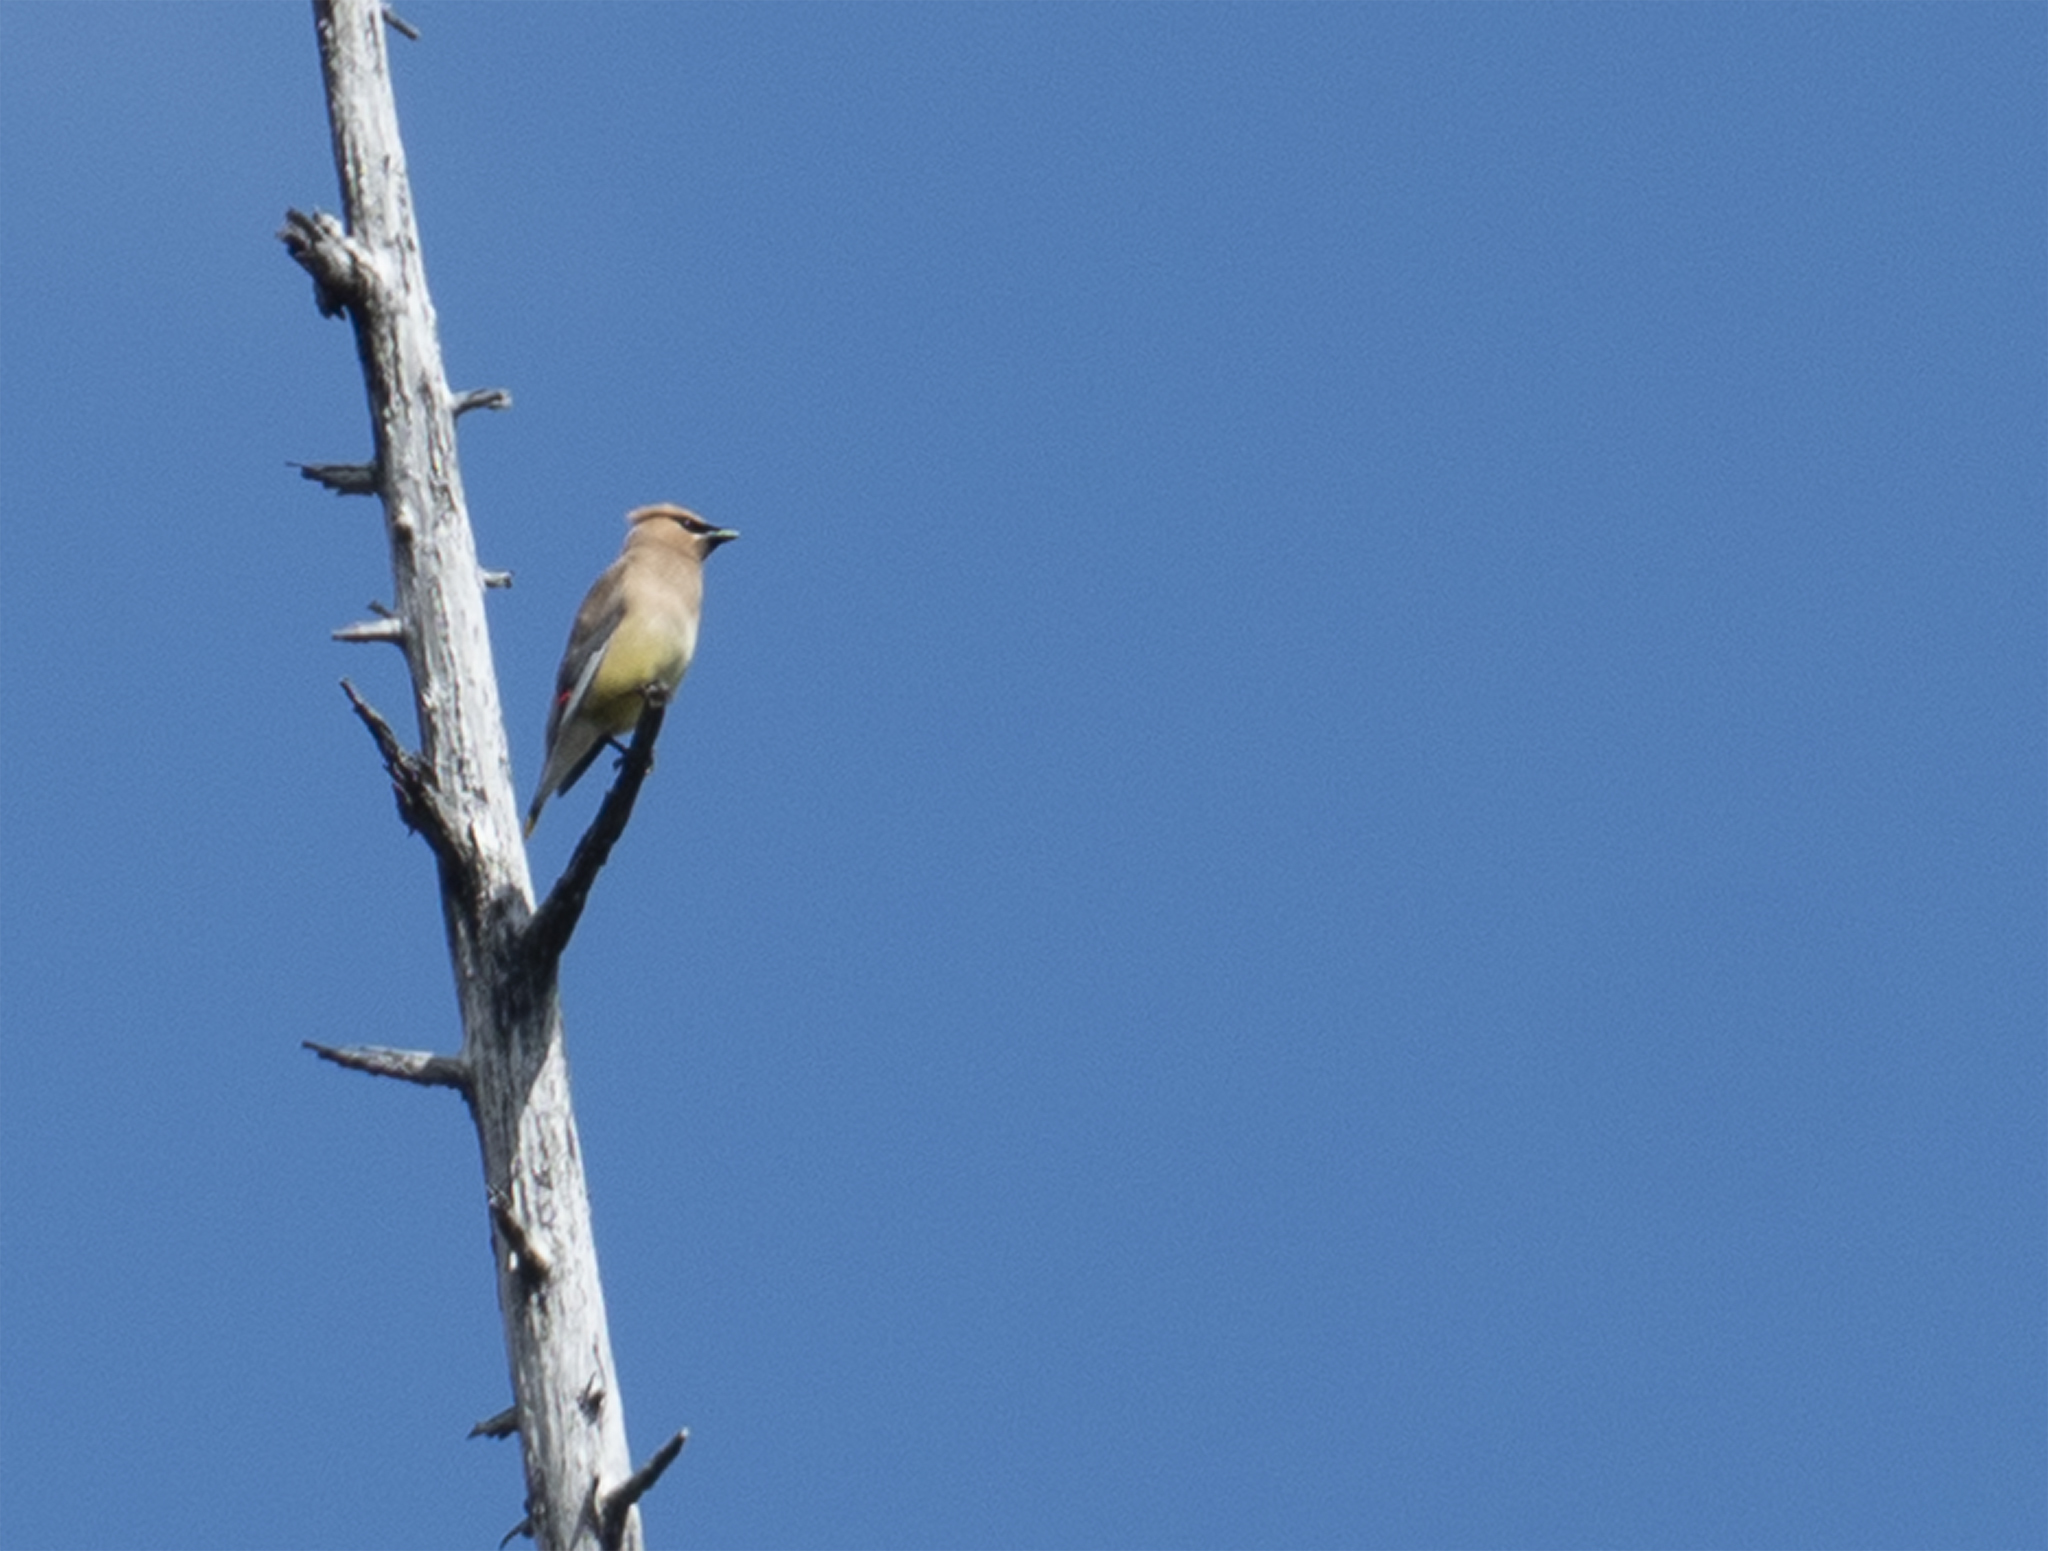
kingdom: Animalia
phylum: Chordata
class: Aves
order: Passeriformes
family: Bombycillidae
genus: Bombycilla
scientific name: Bombycilla cedrorum
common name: Cedar waxwing
